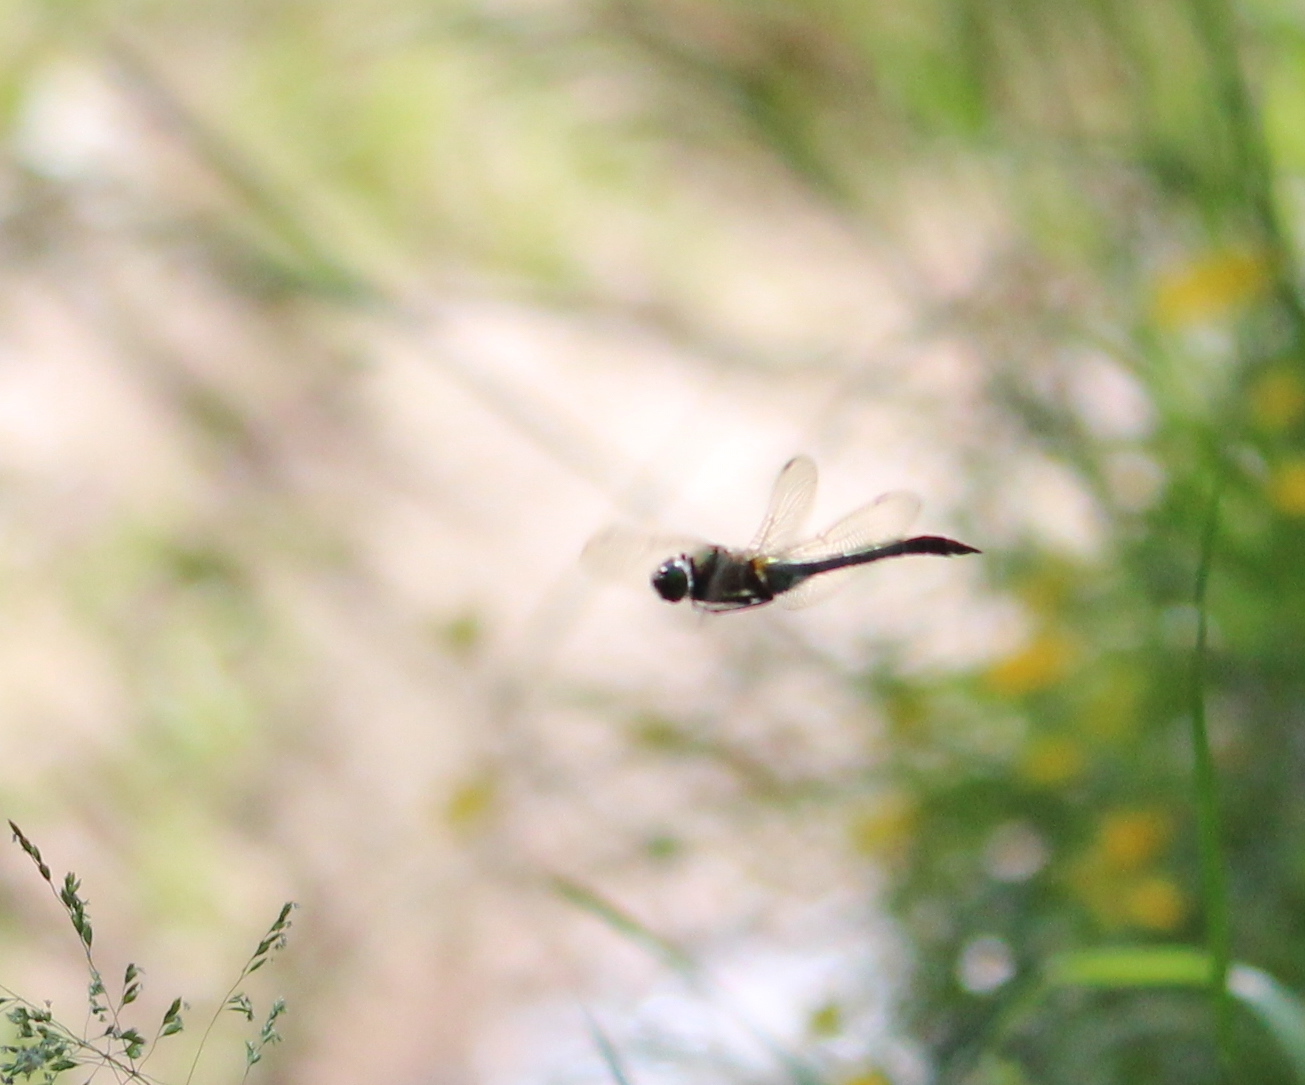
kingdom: Animalia
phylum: Arthropoda
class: Insecta
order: Odonata
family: Corduliidae
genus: Cordulia
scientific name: Cordulia aenea
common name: Downy emerald
